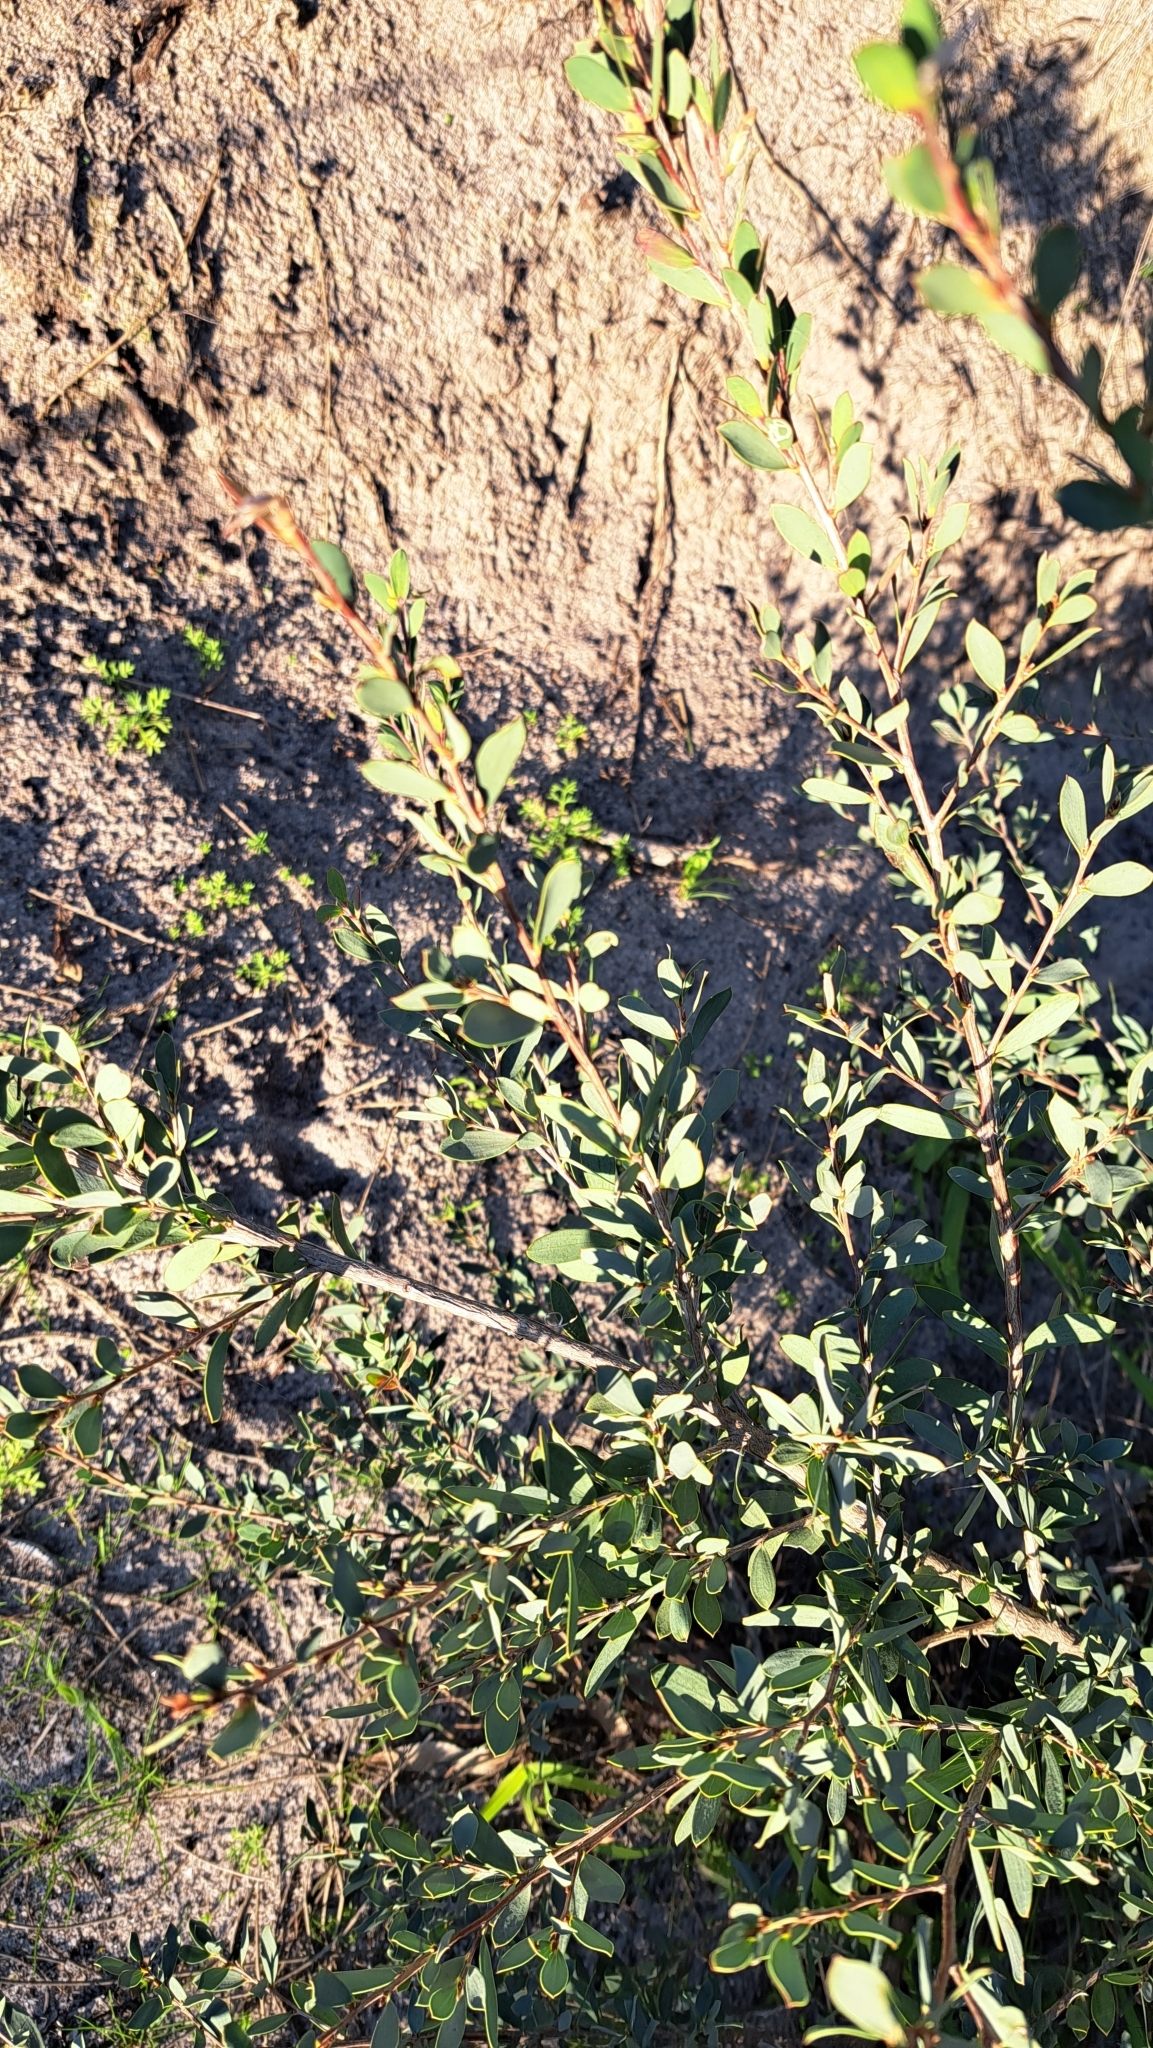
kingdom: Plantae
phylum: Tracheophyta
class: Magnoliopsida
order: Myrtales
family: Myrtaceae
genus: Leptospermum
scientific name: Leptospermum laevigatum
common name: Australian teatree
